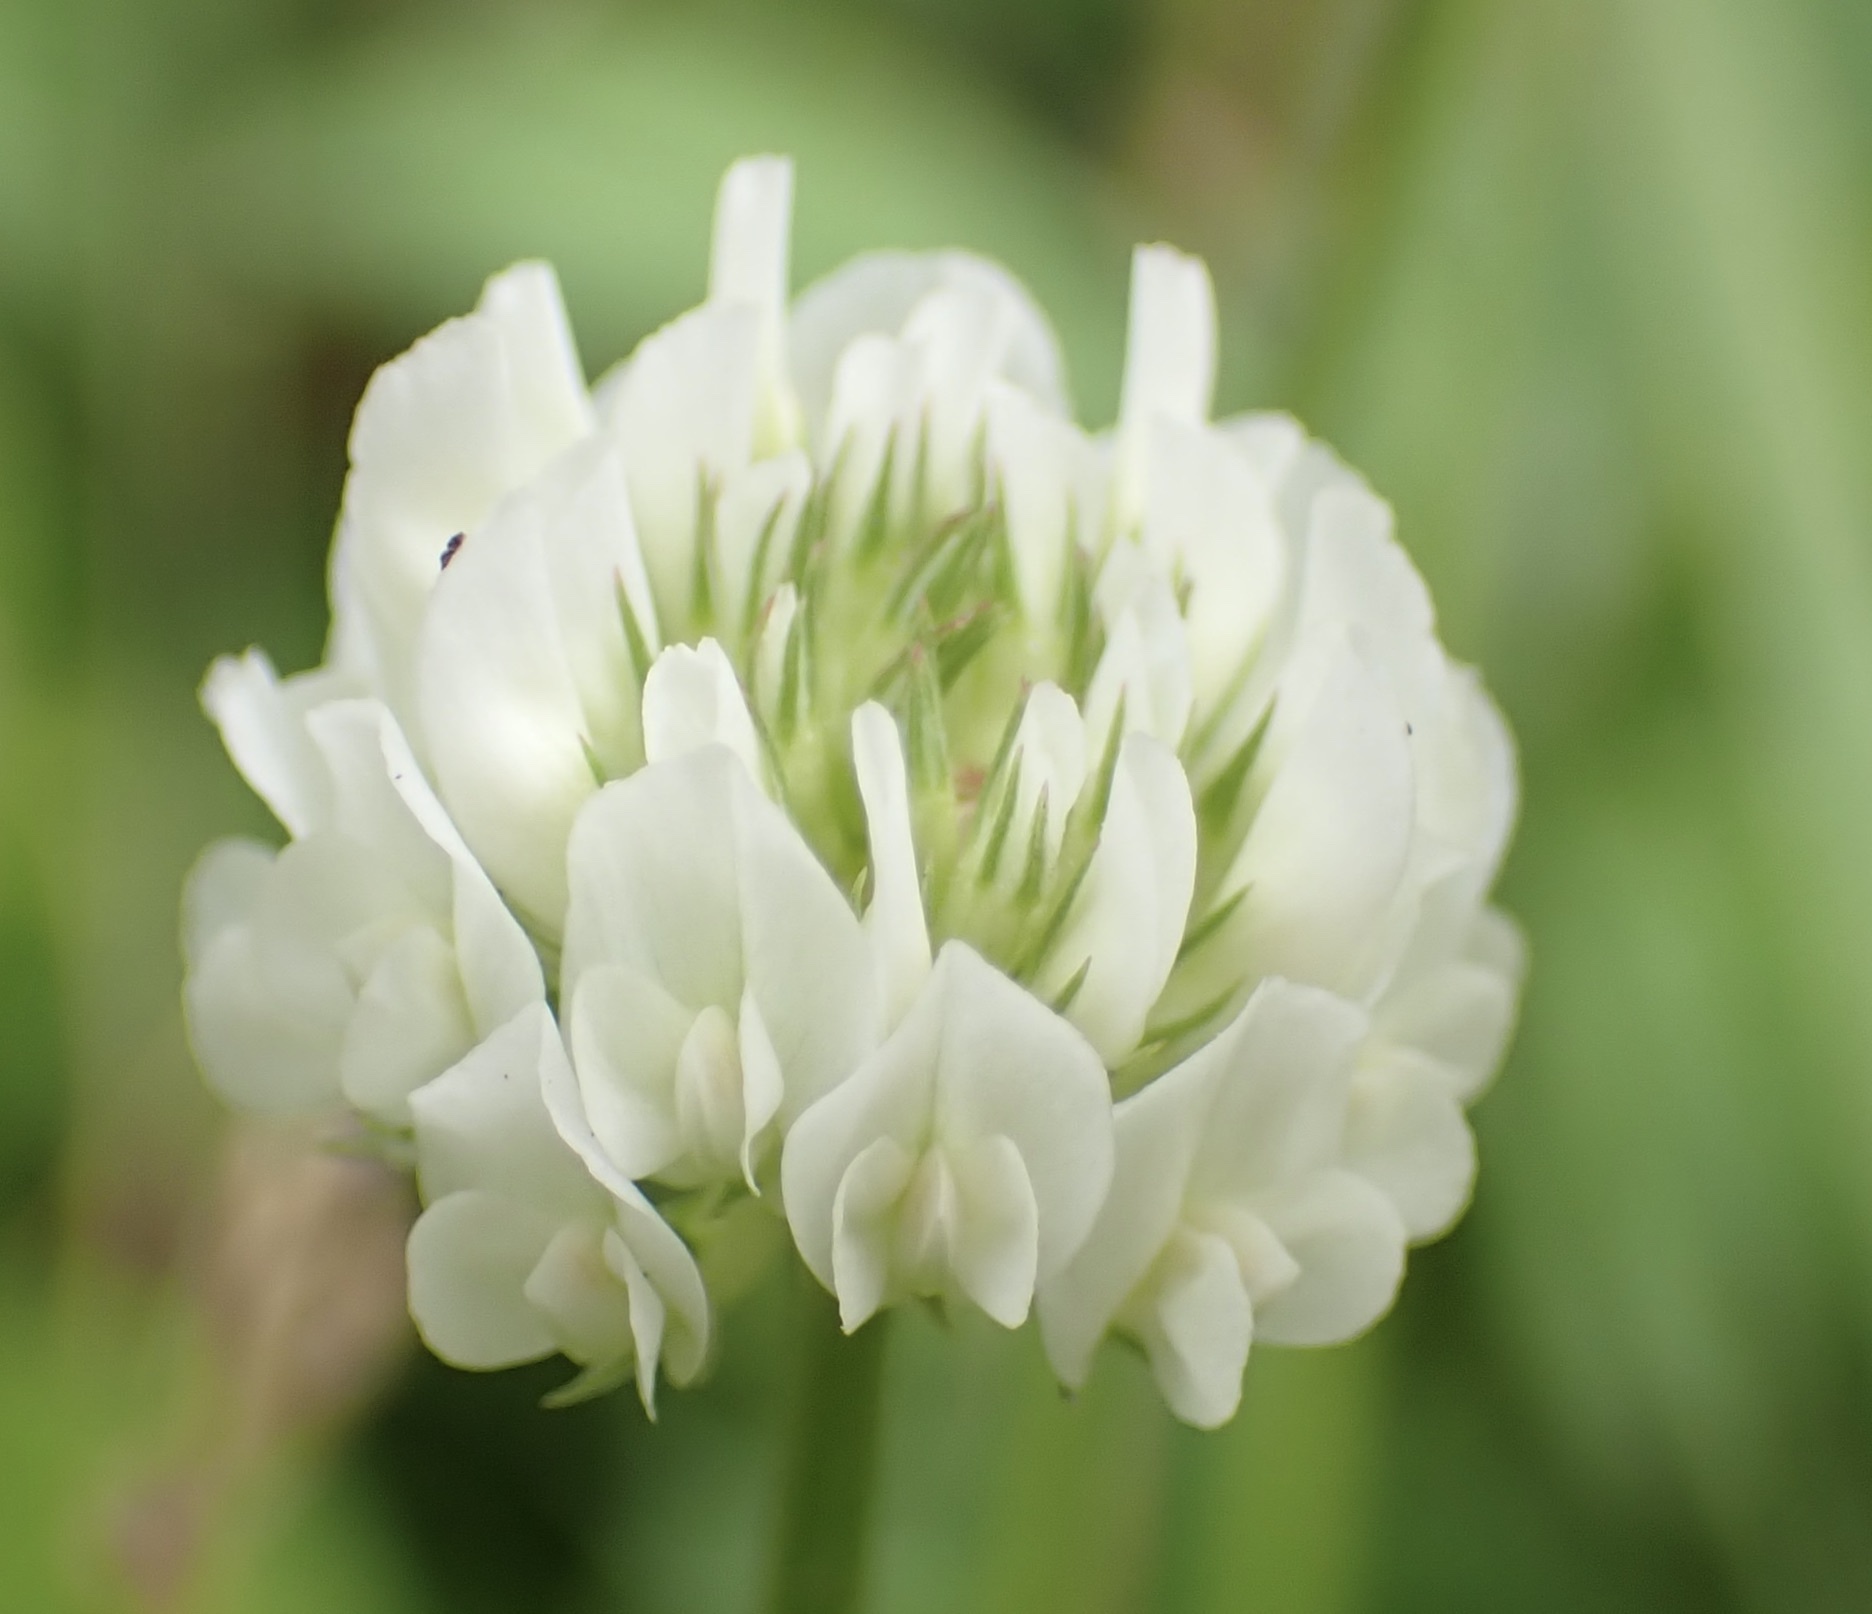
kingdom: Plantae
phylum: Tracheophyta
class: Magnoliopsida
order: Fabales
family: Fabaceae
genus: Trifolium
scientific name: Trifolium repens
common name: White clover
